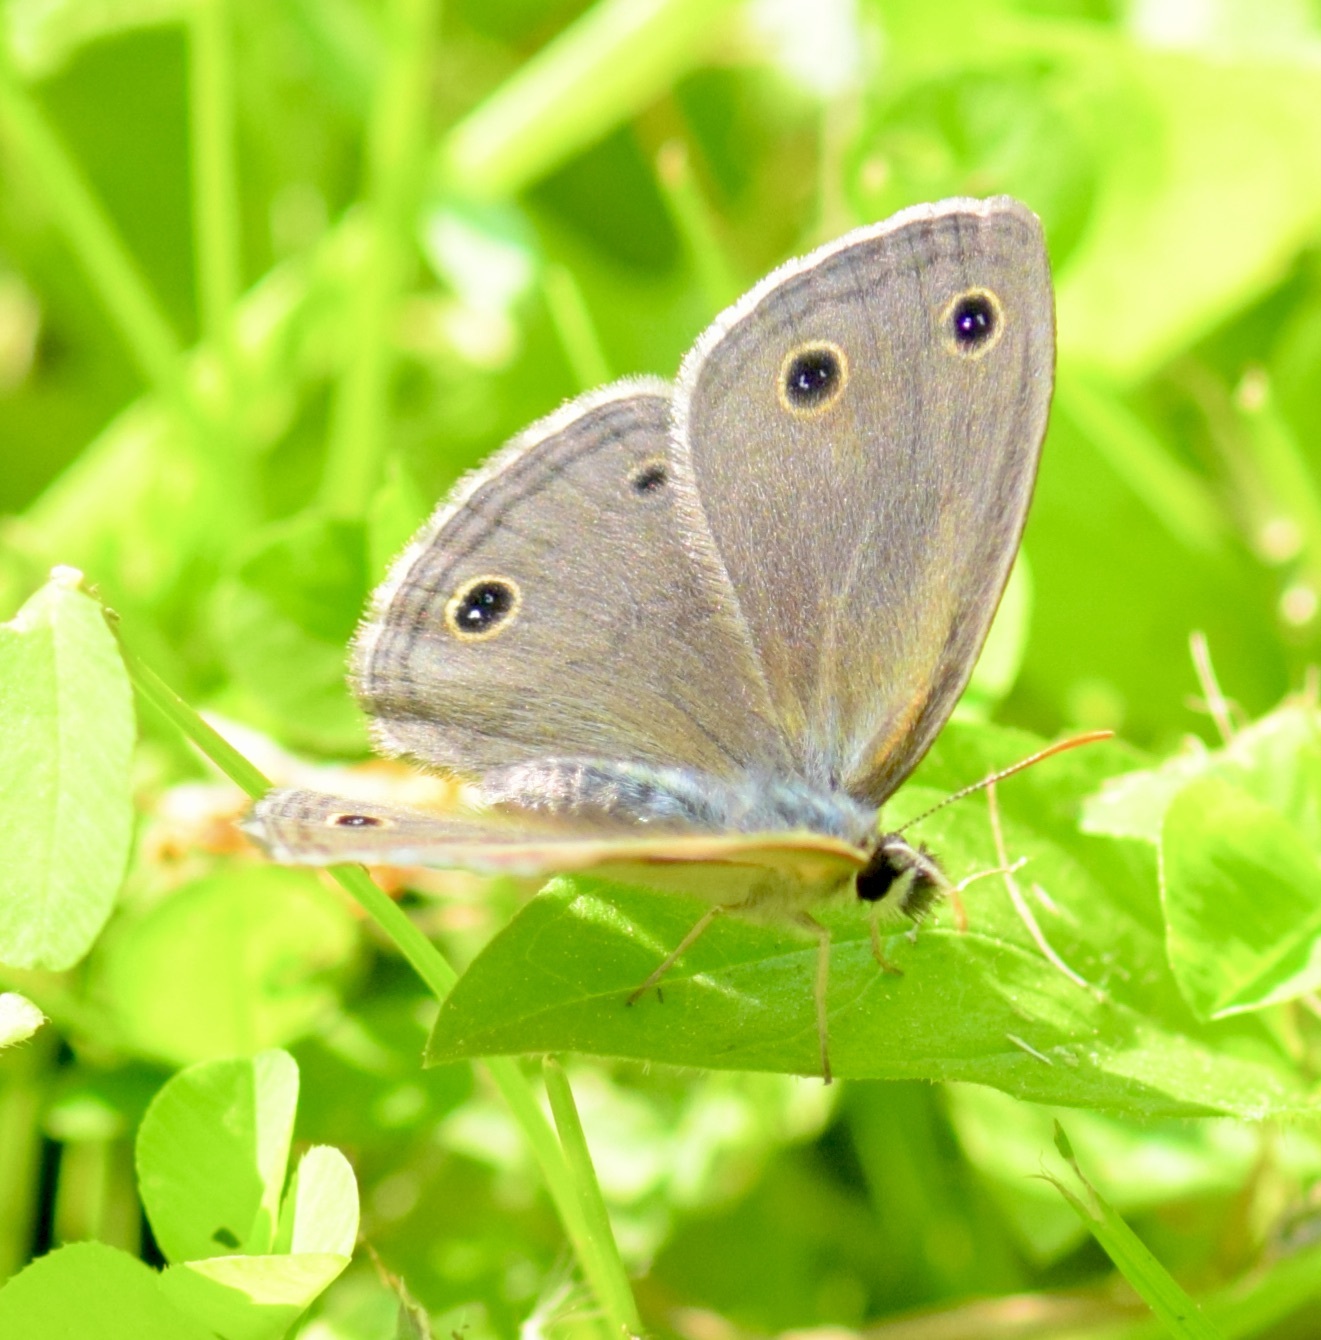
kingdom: Animalia
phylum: Arthropoda
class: Insecta
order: Lepidoptera
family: Nymphalidae
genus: Euptychia
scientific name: Euptychia cymela
